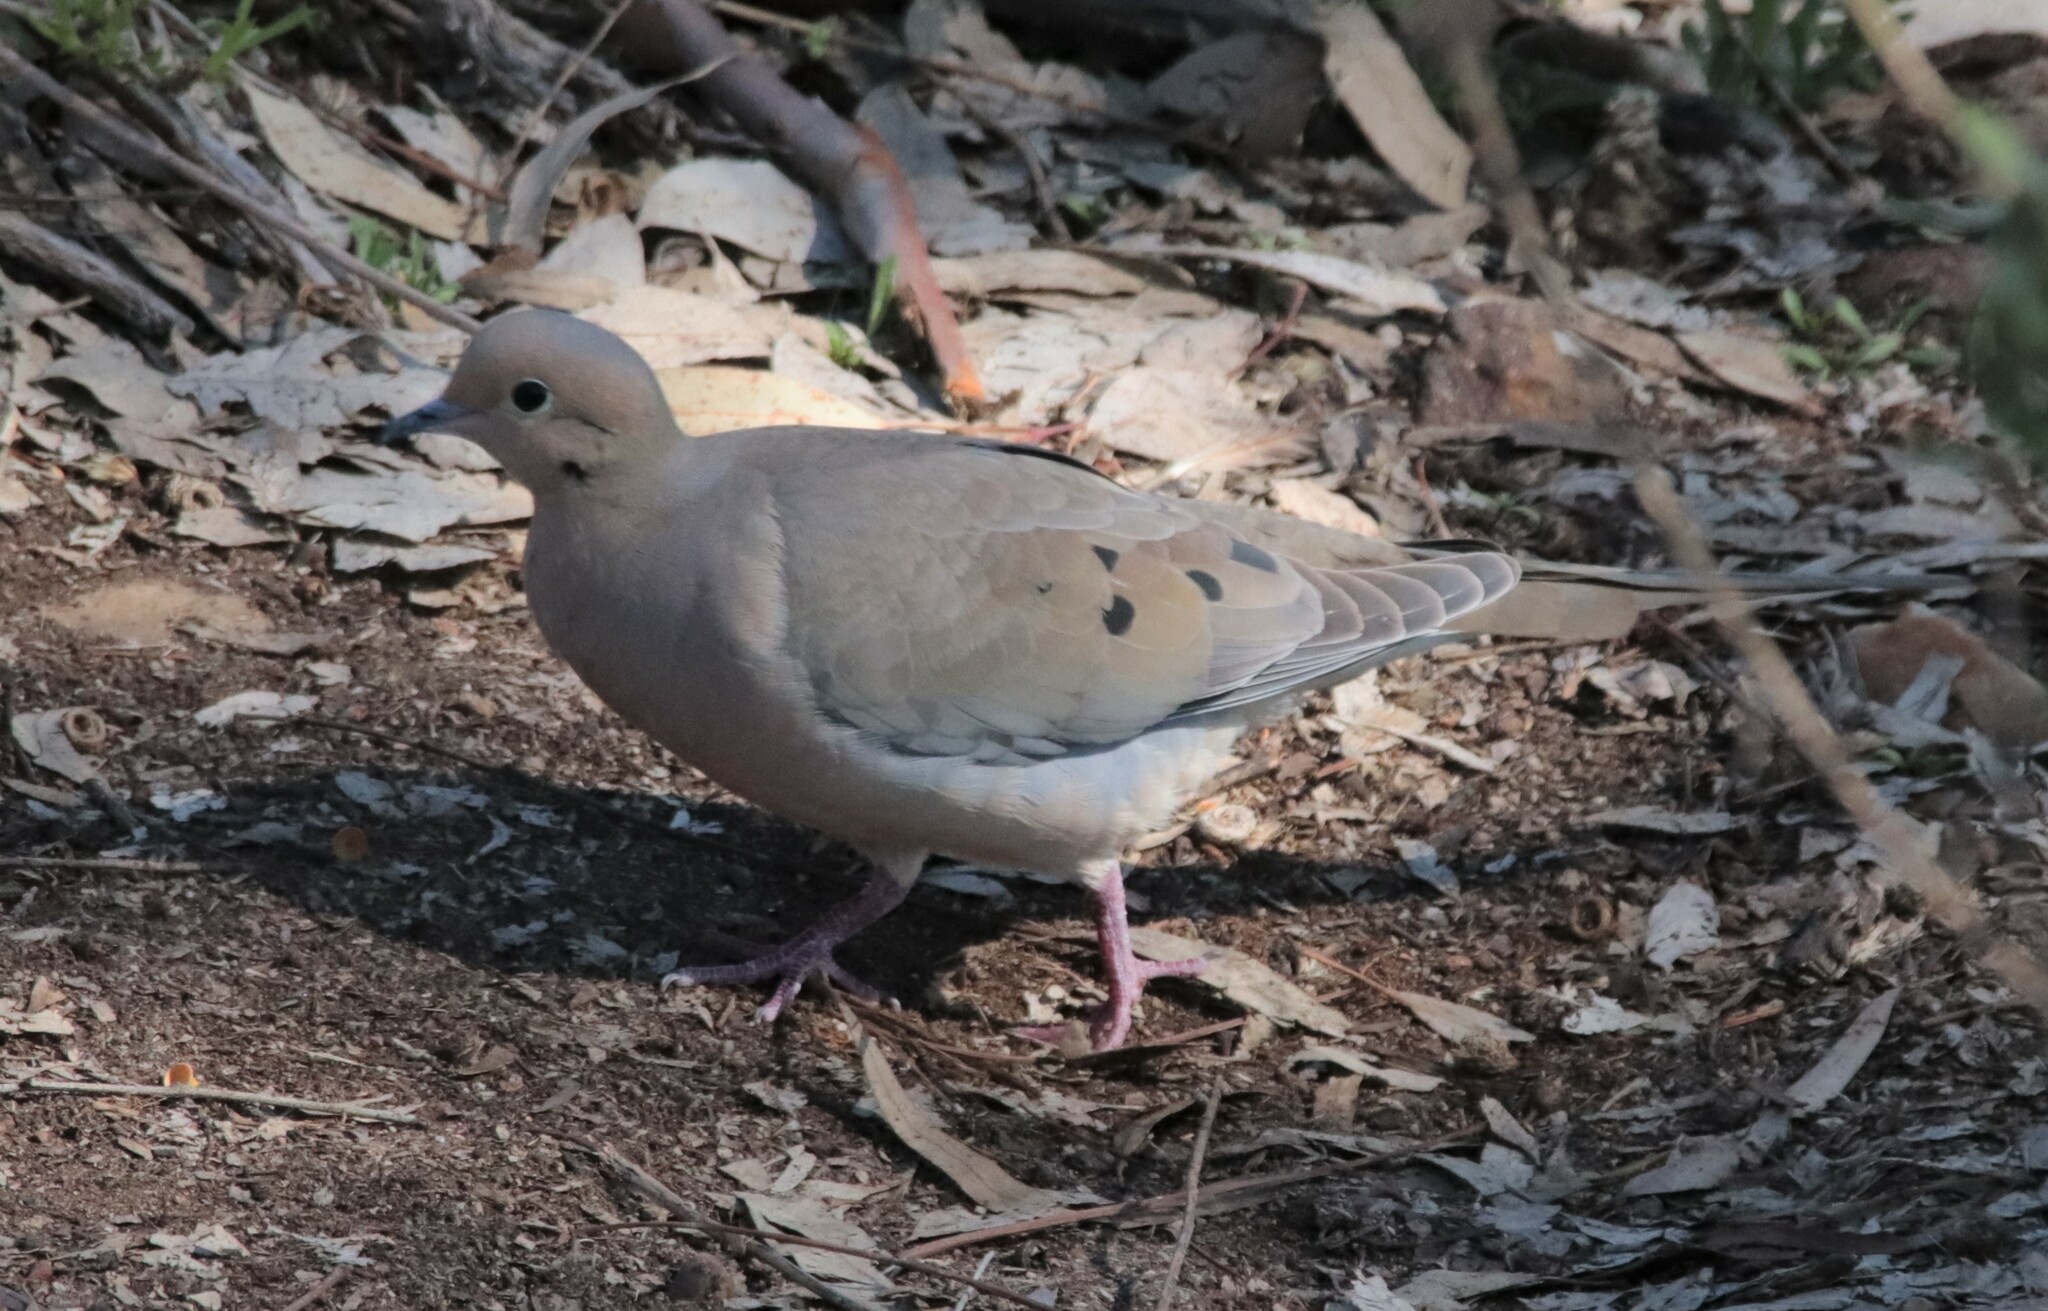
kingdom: Animalia
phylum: Chordata
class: Aves
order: Columbiformes
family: Columbidae
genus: Zenaida
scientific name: Zenaida macroura
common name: Mourning dove
